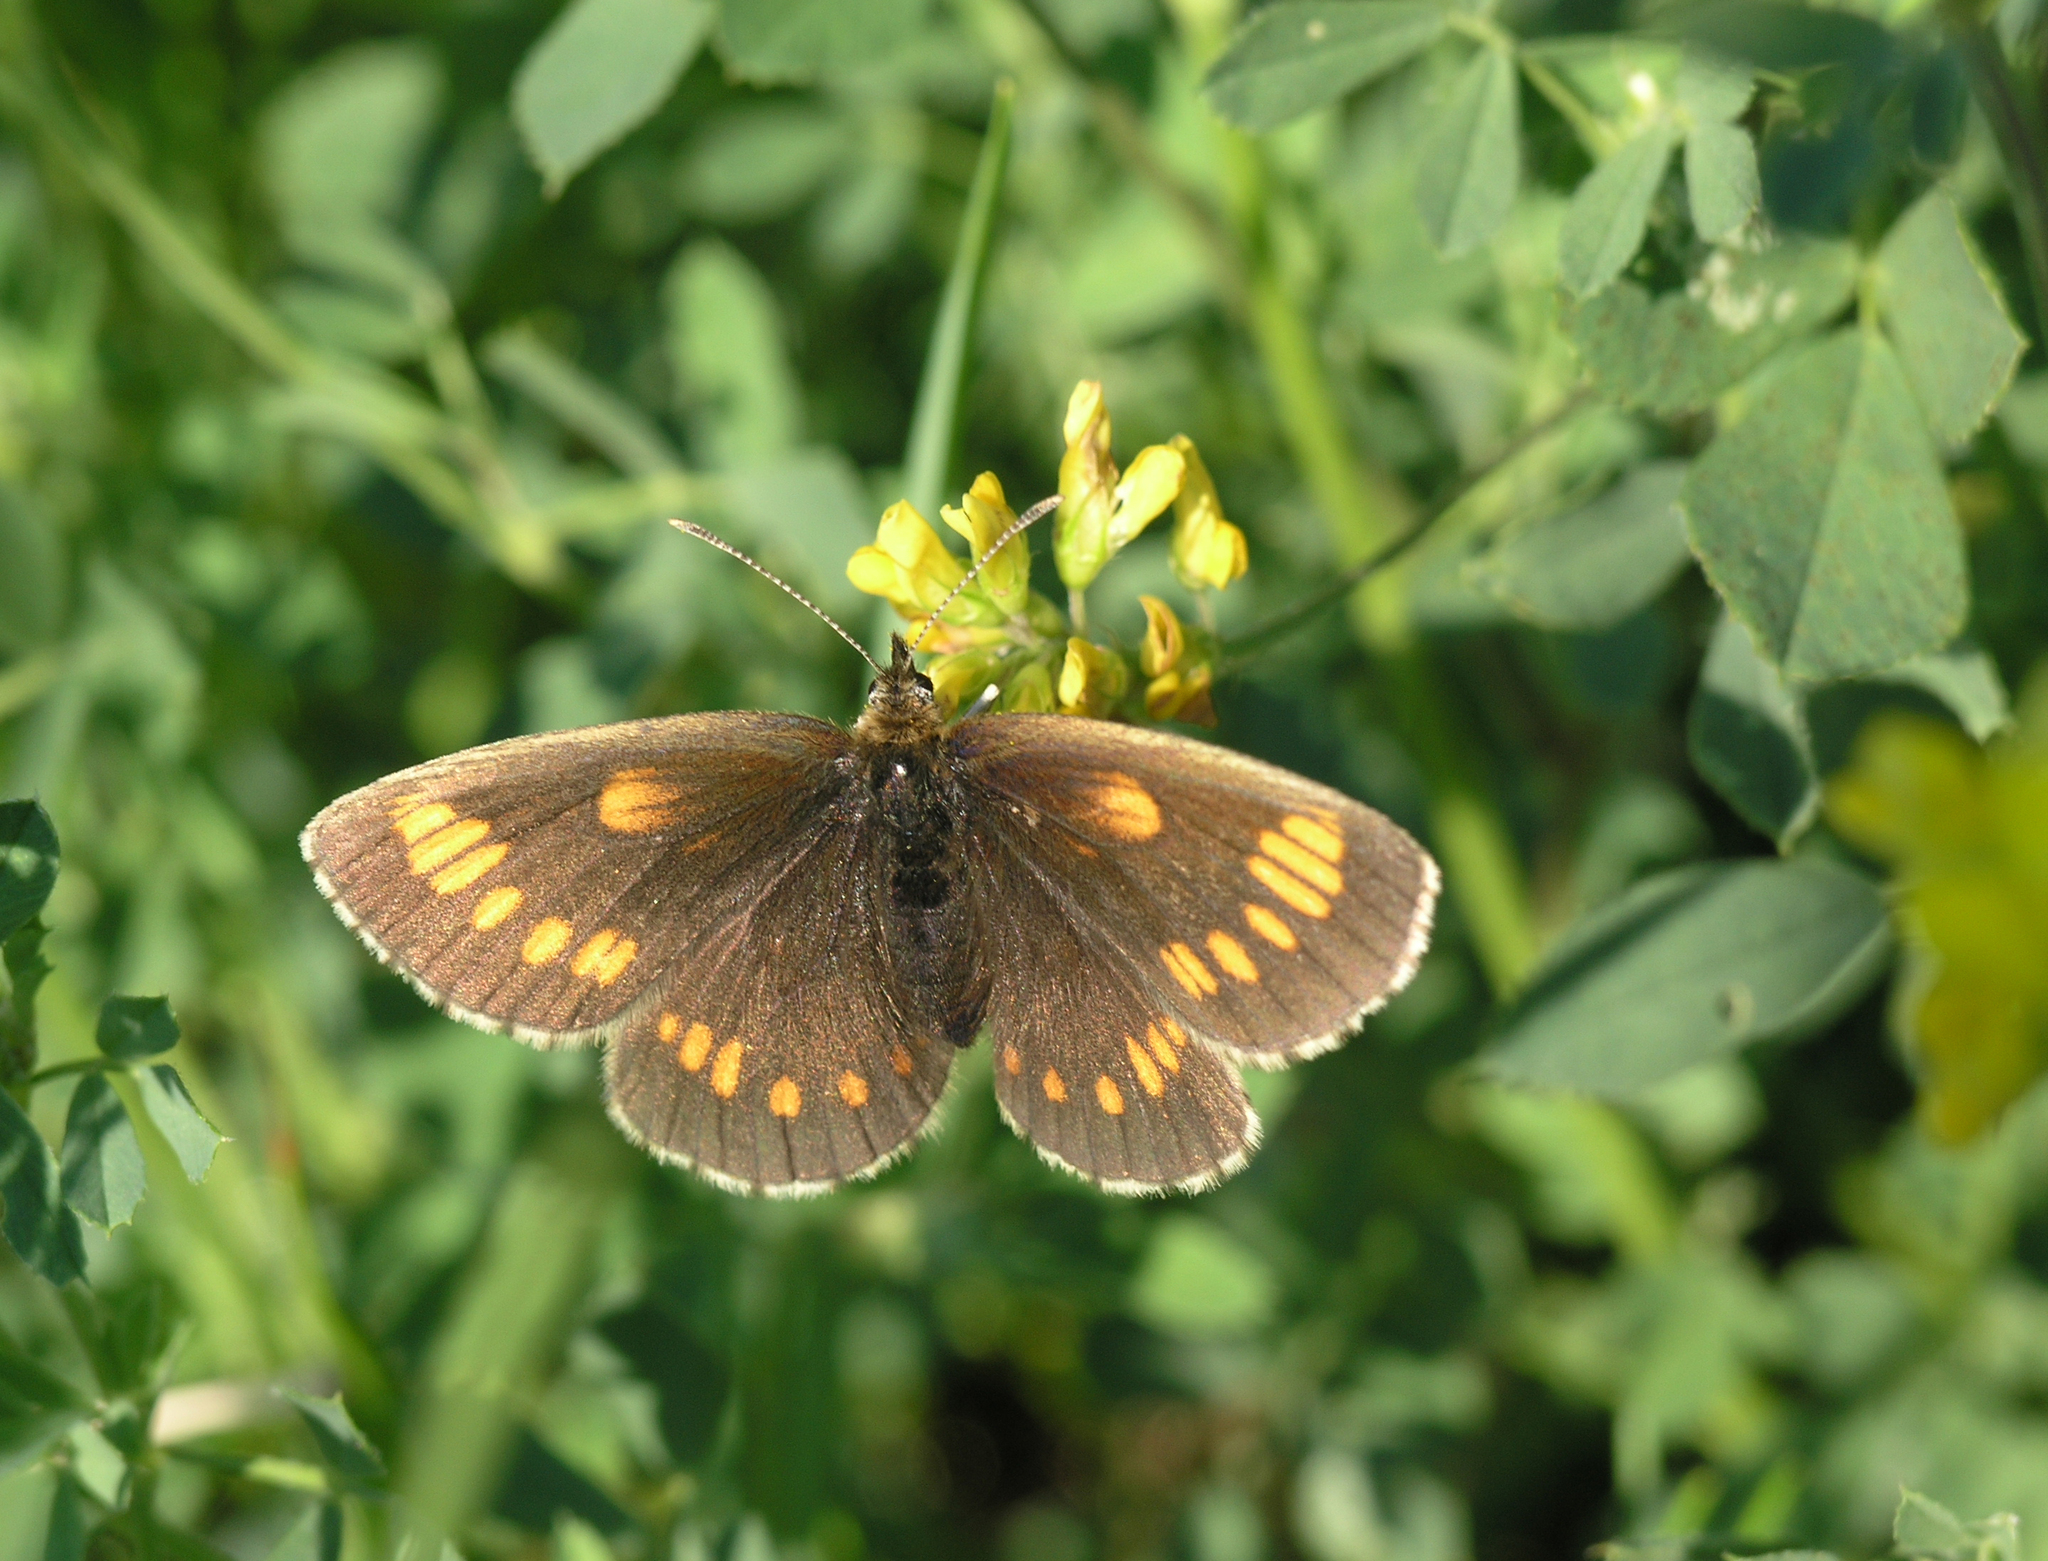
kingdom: Animalia
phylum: Arthropoda
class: Insecta
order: Lepidoptera
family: Nymphalidae
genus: Erebia
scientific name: Erebia maurisius
